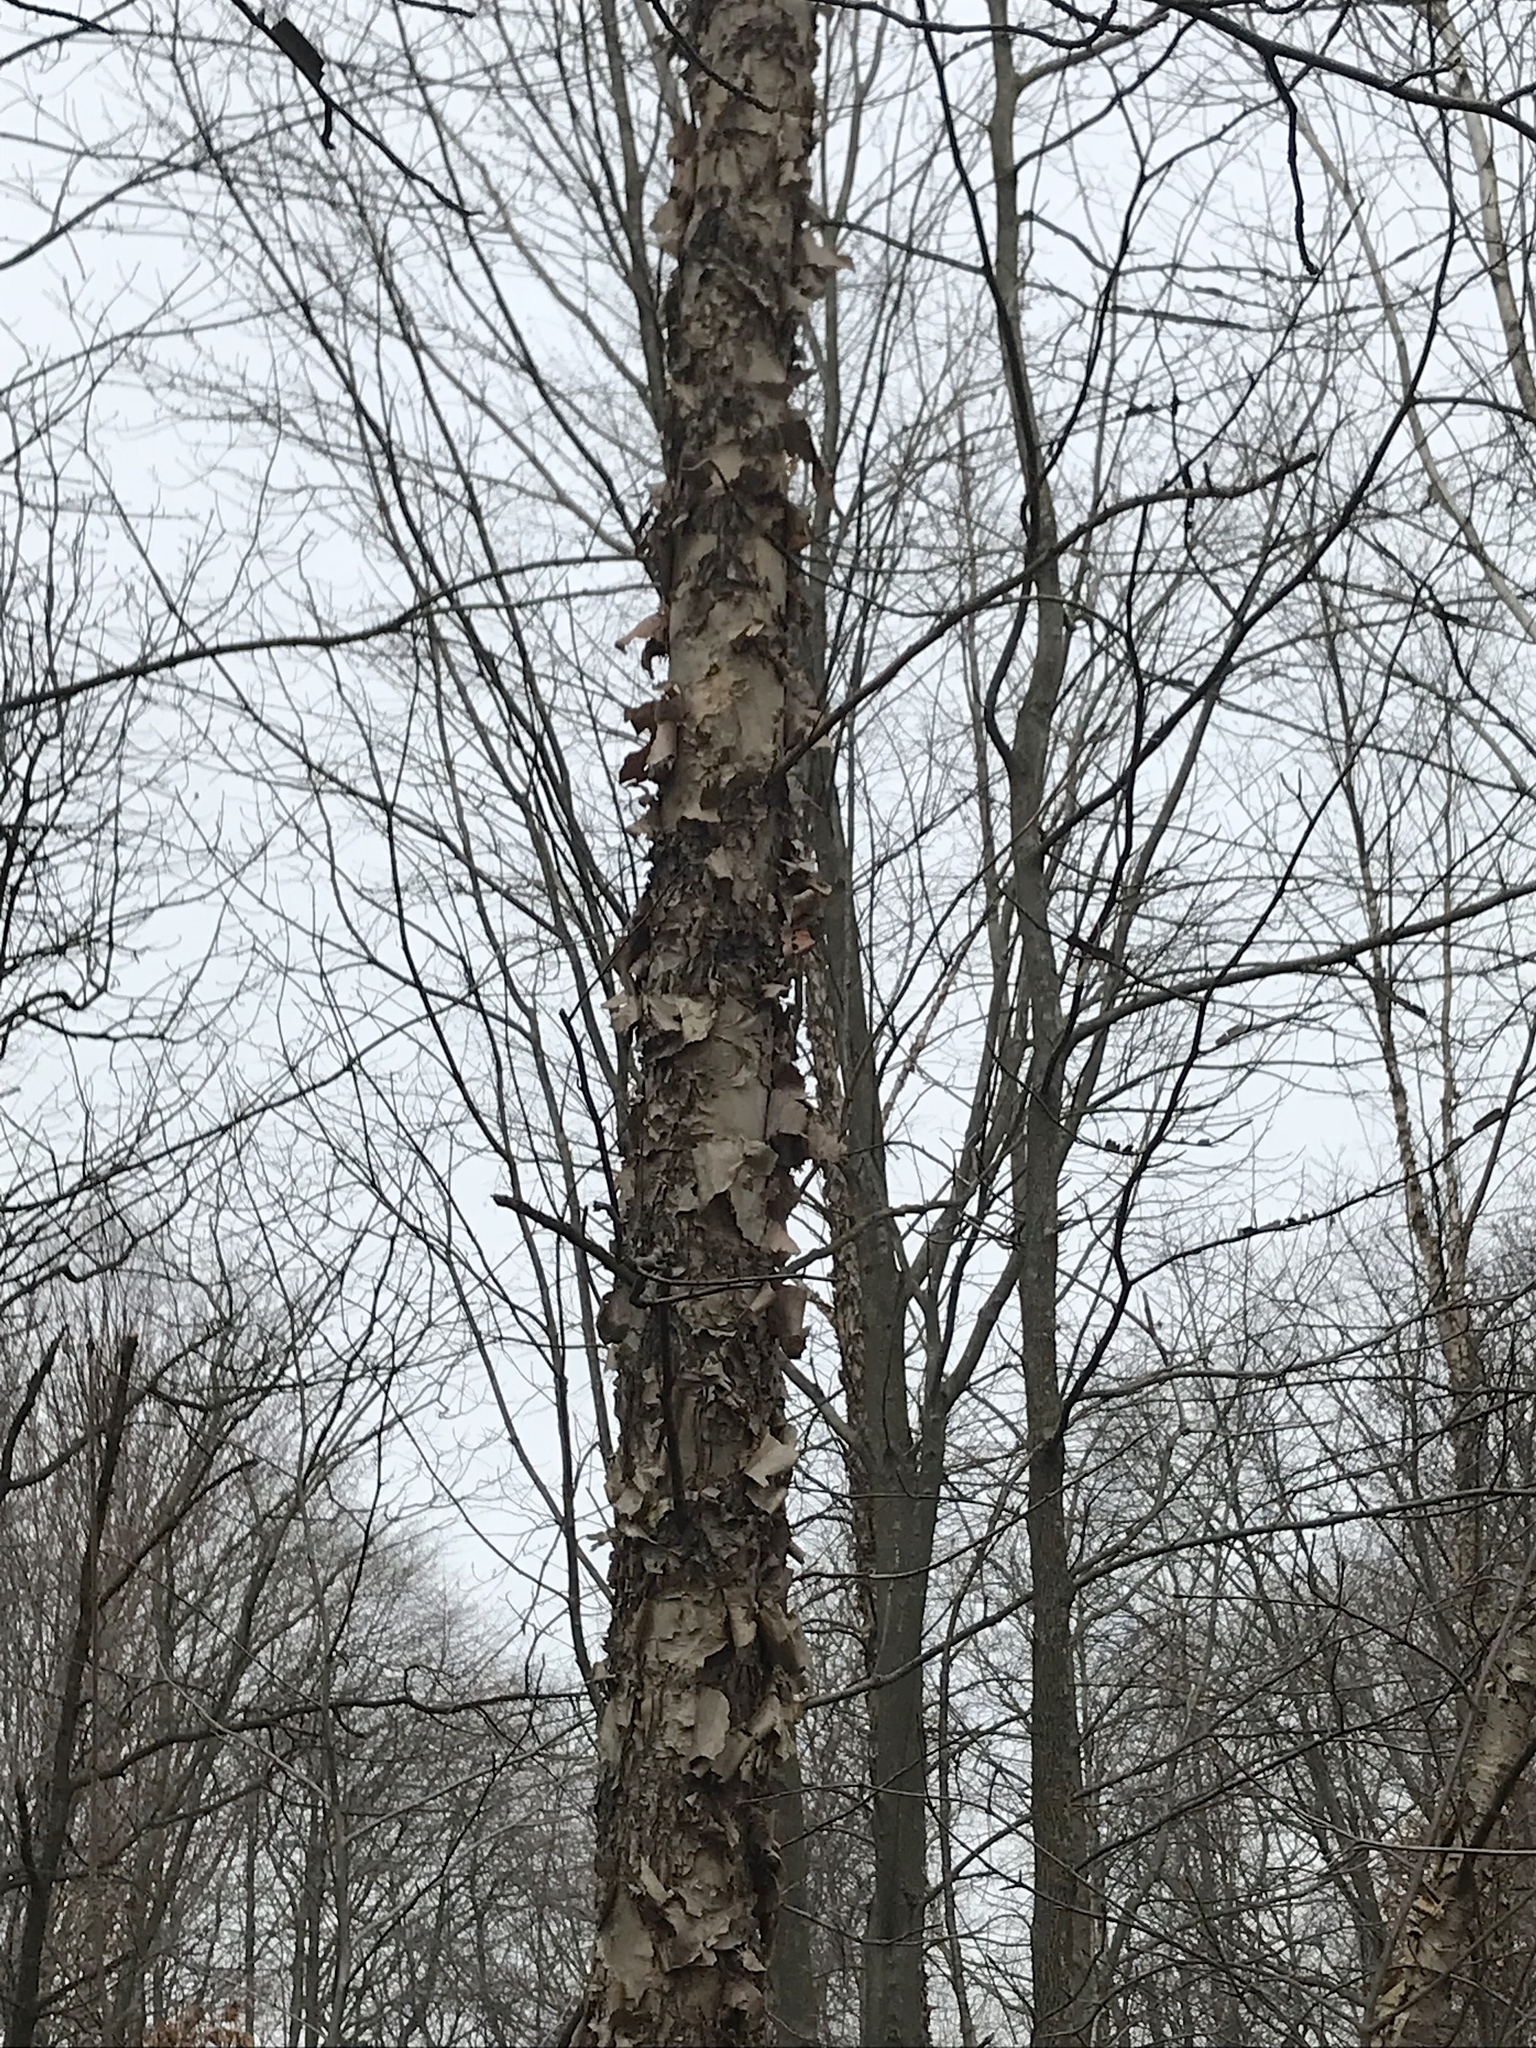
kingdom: Plantae
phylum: Tracheophyta
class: Magnoliopsida
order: Fagales
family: Betulaceae
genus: Betula
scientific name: Betula nigra
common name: Black birch
